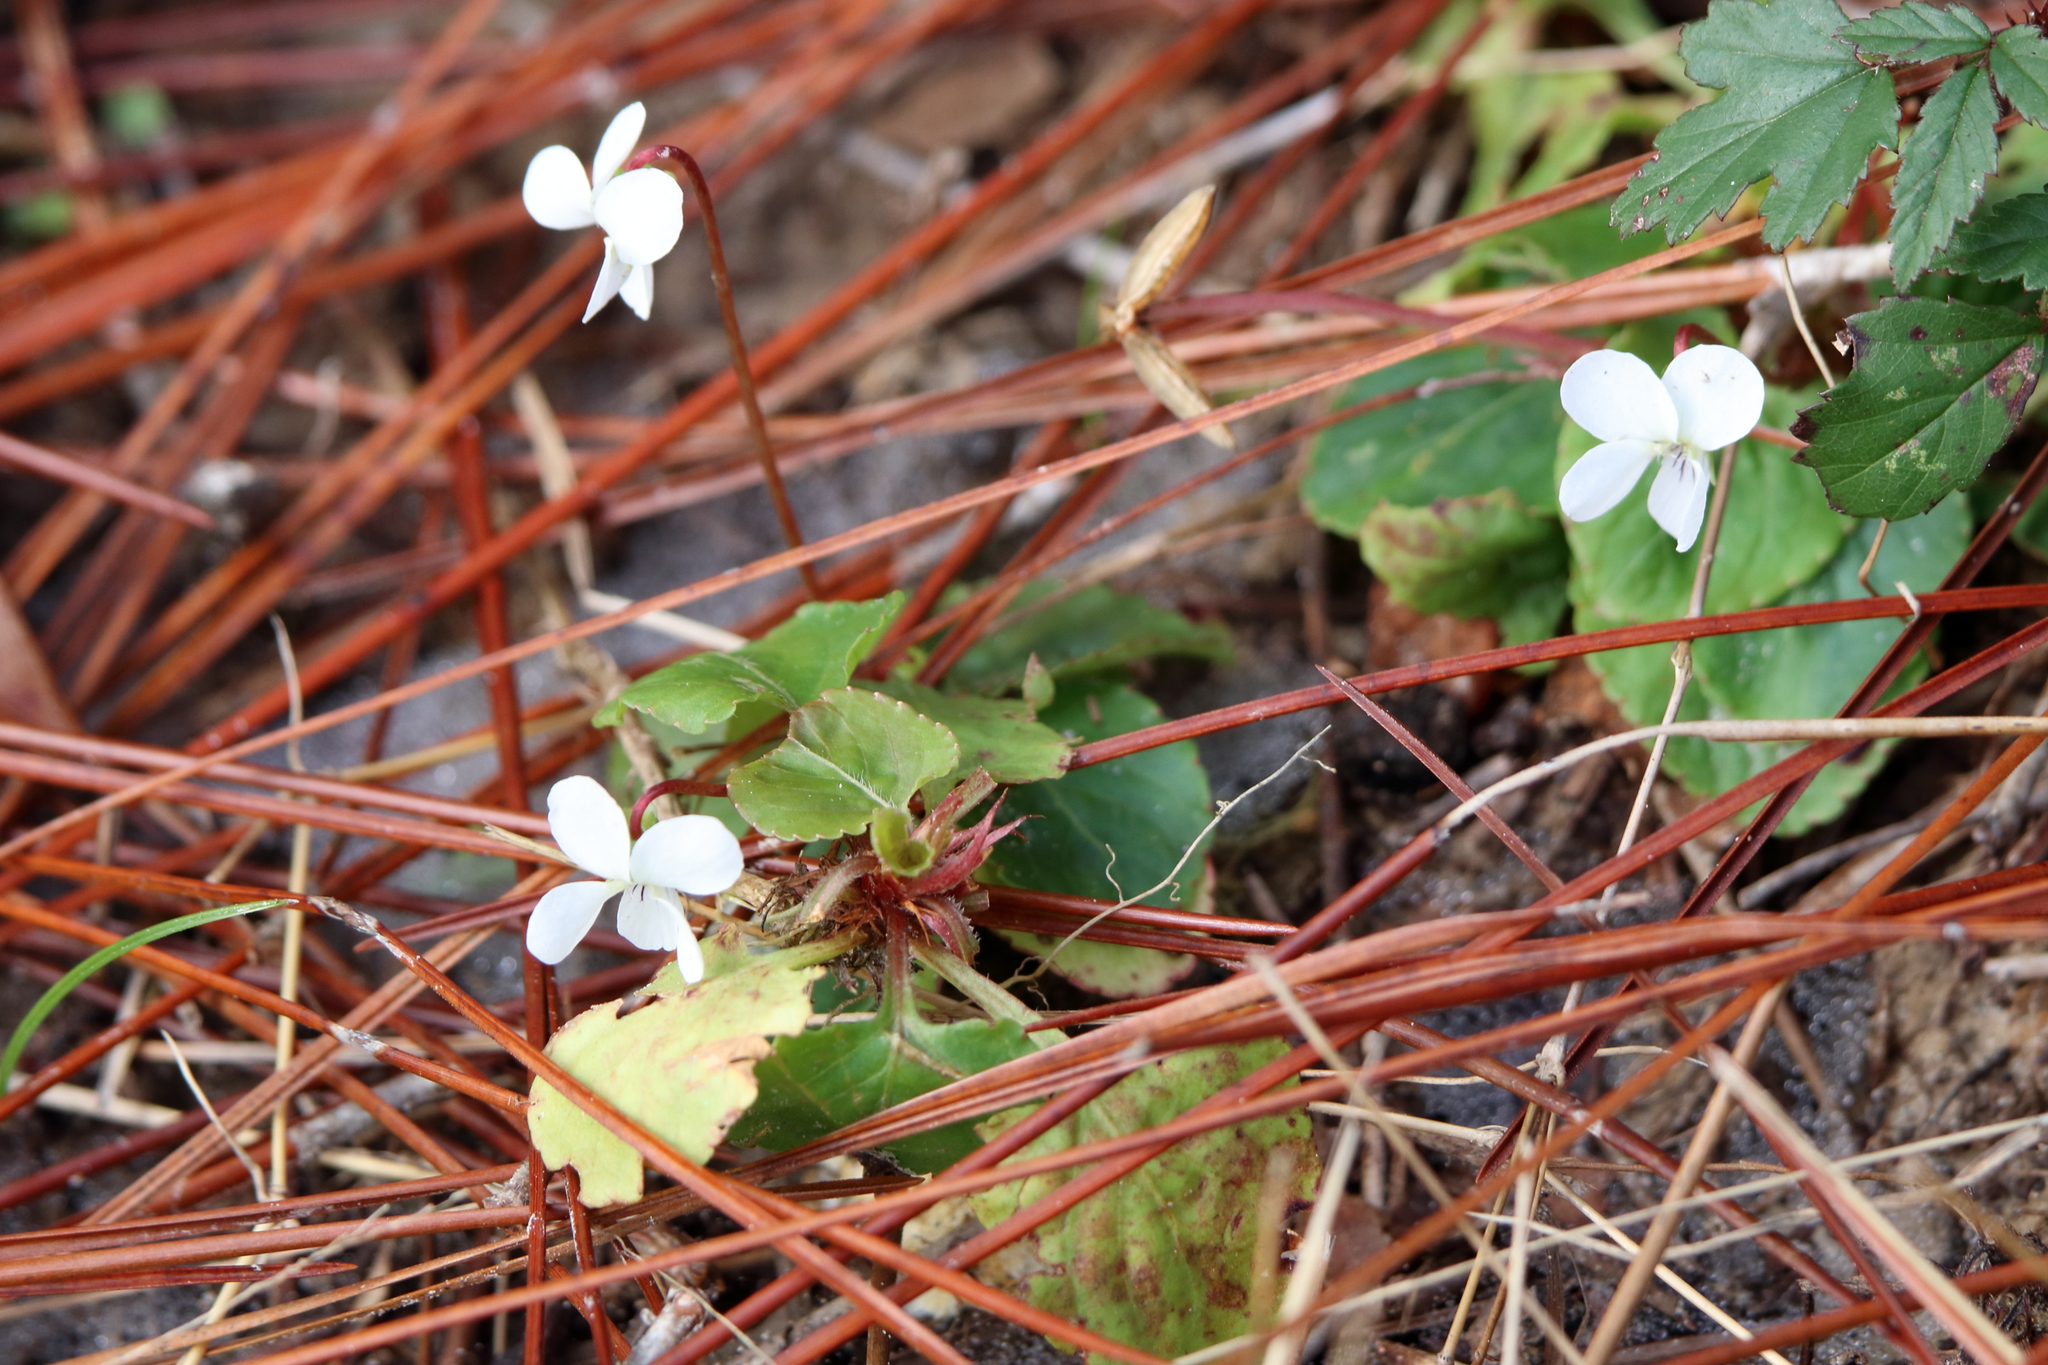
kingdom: Plantae
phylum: Tracheophyta
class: Magnoliopsida
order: Malpighiales
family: Violaceae
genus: Viola
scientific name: Viola primulifolia
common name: Primrose-leaf violet
